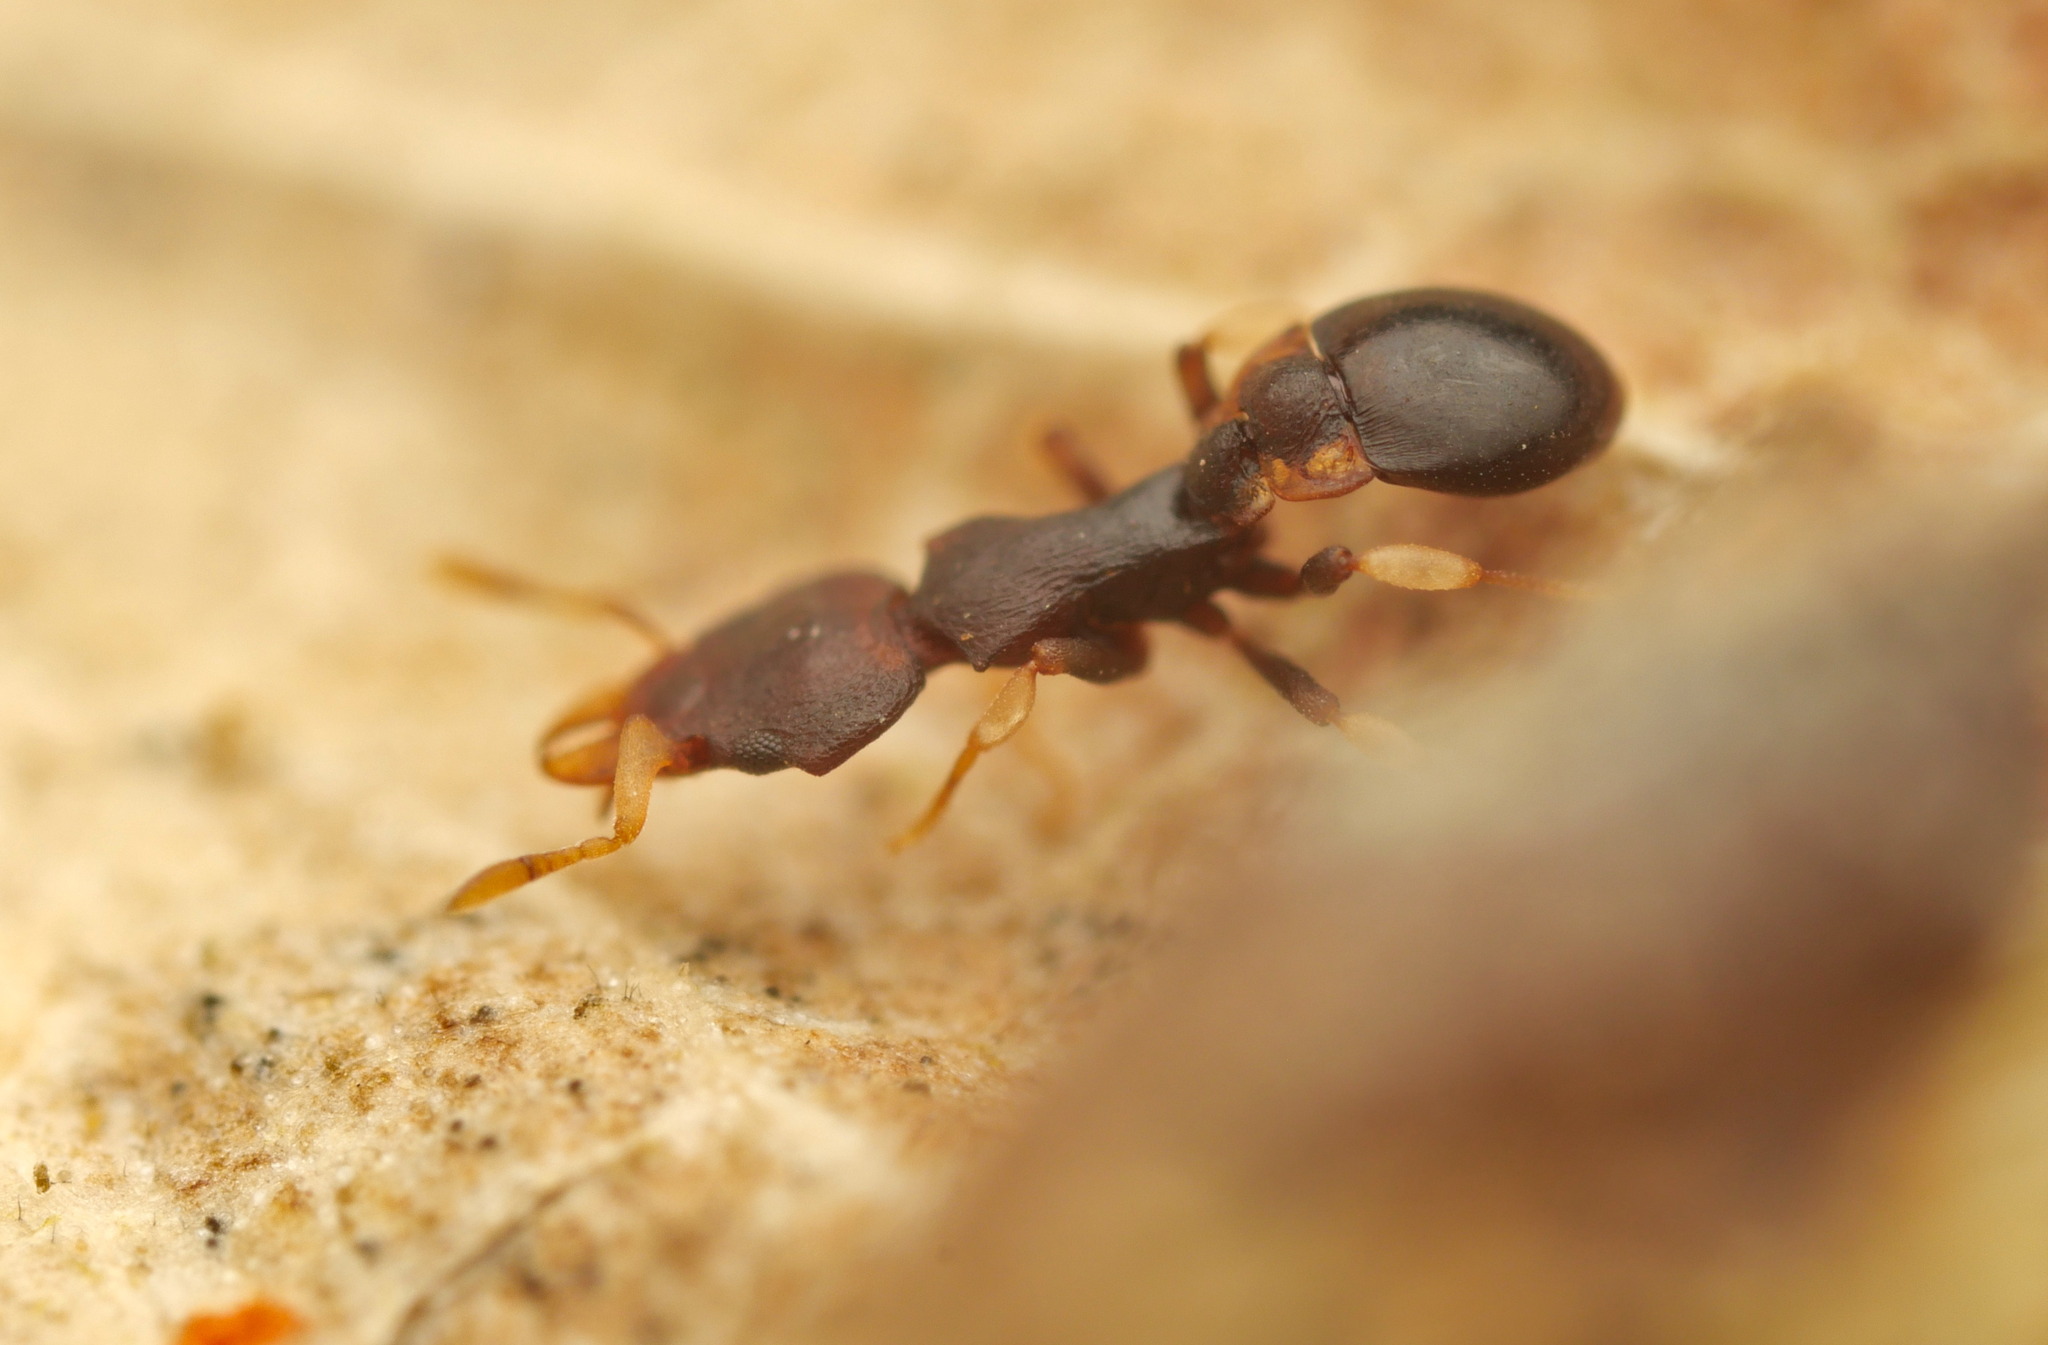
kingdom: Animalia
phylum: Arthropoda
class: Insecta
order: Hymenoptera
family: Formicidae
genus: Colobostruma
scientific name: Colobostruma foliacea
